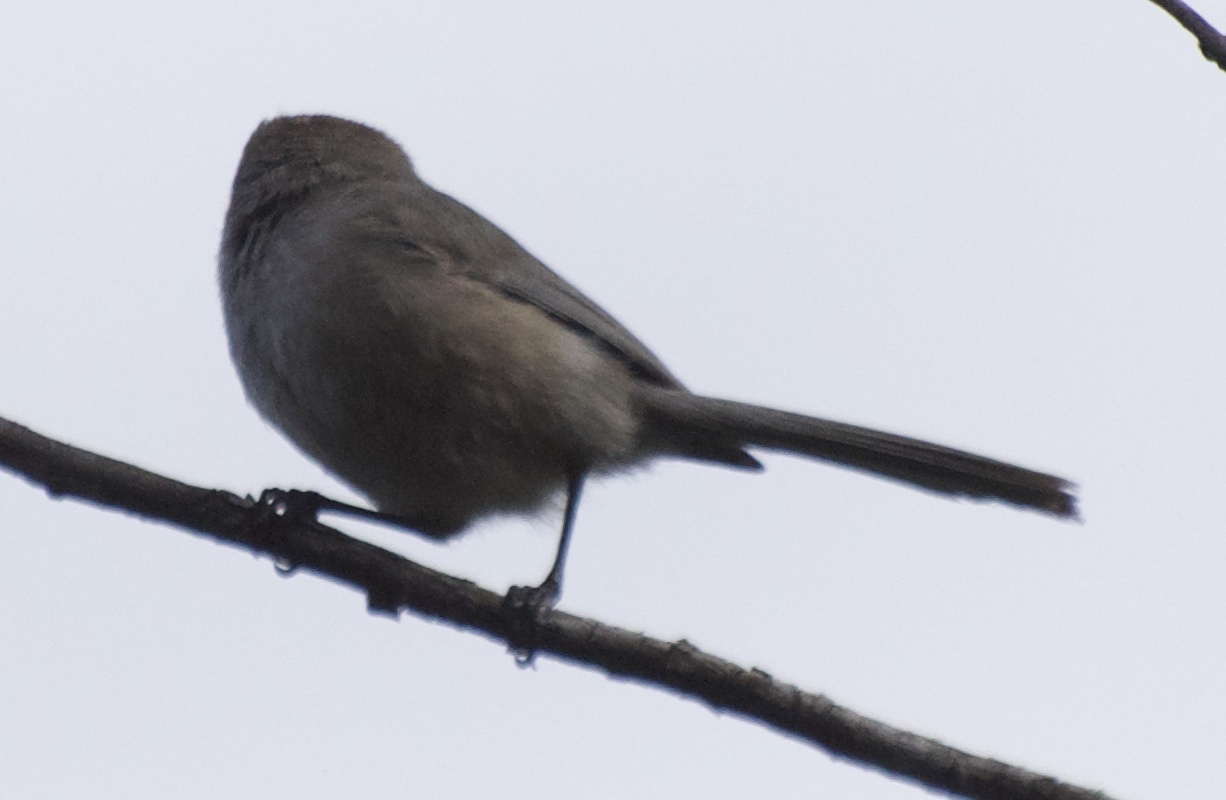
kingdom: Animalia
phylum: Chordata
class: Aves
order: Passeriformes
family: Aegithalidae
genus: Psaltriparus
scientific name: Psaltriparus minimus
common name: American bushtit
